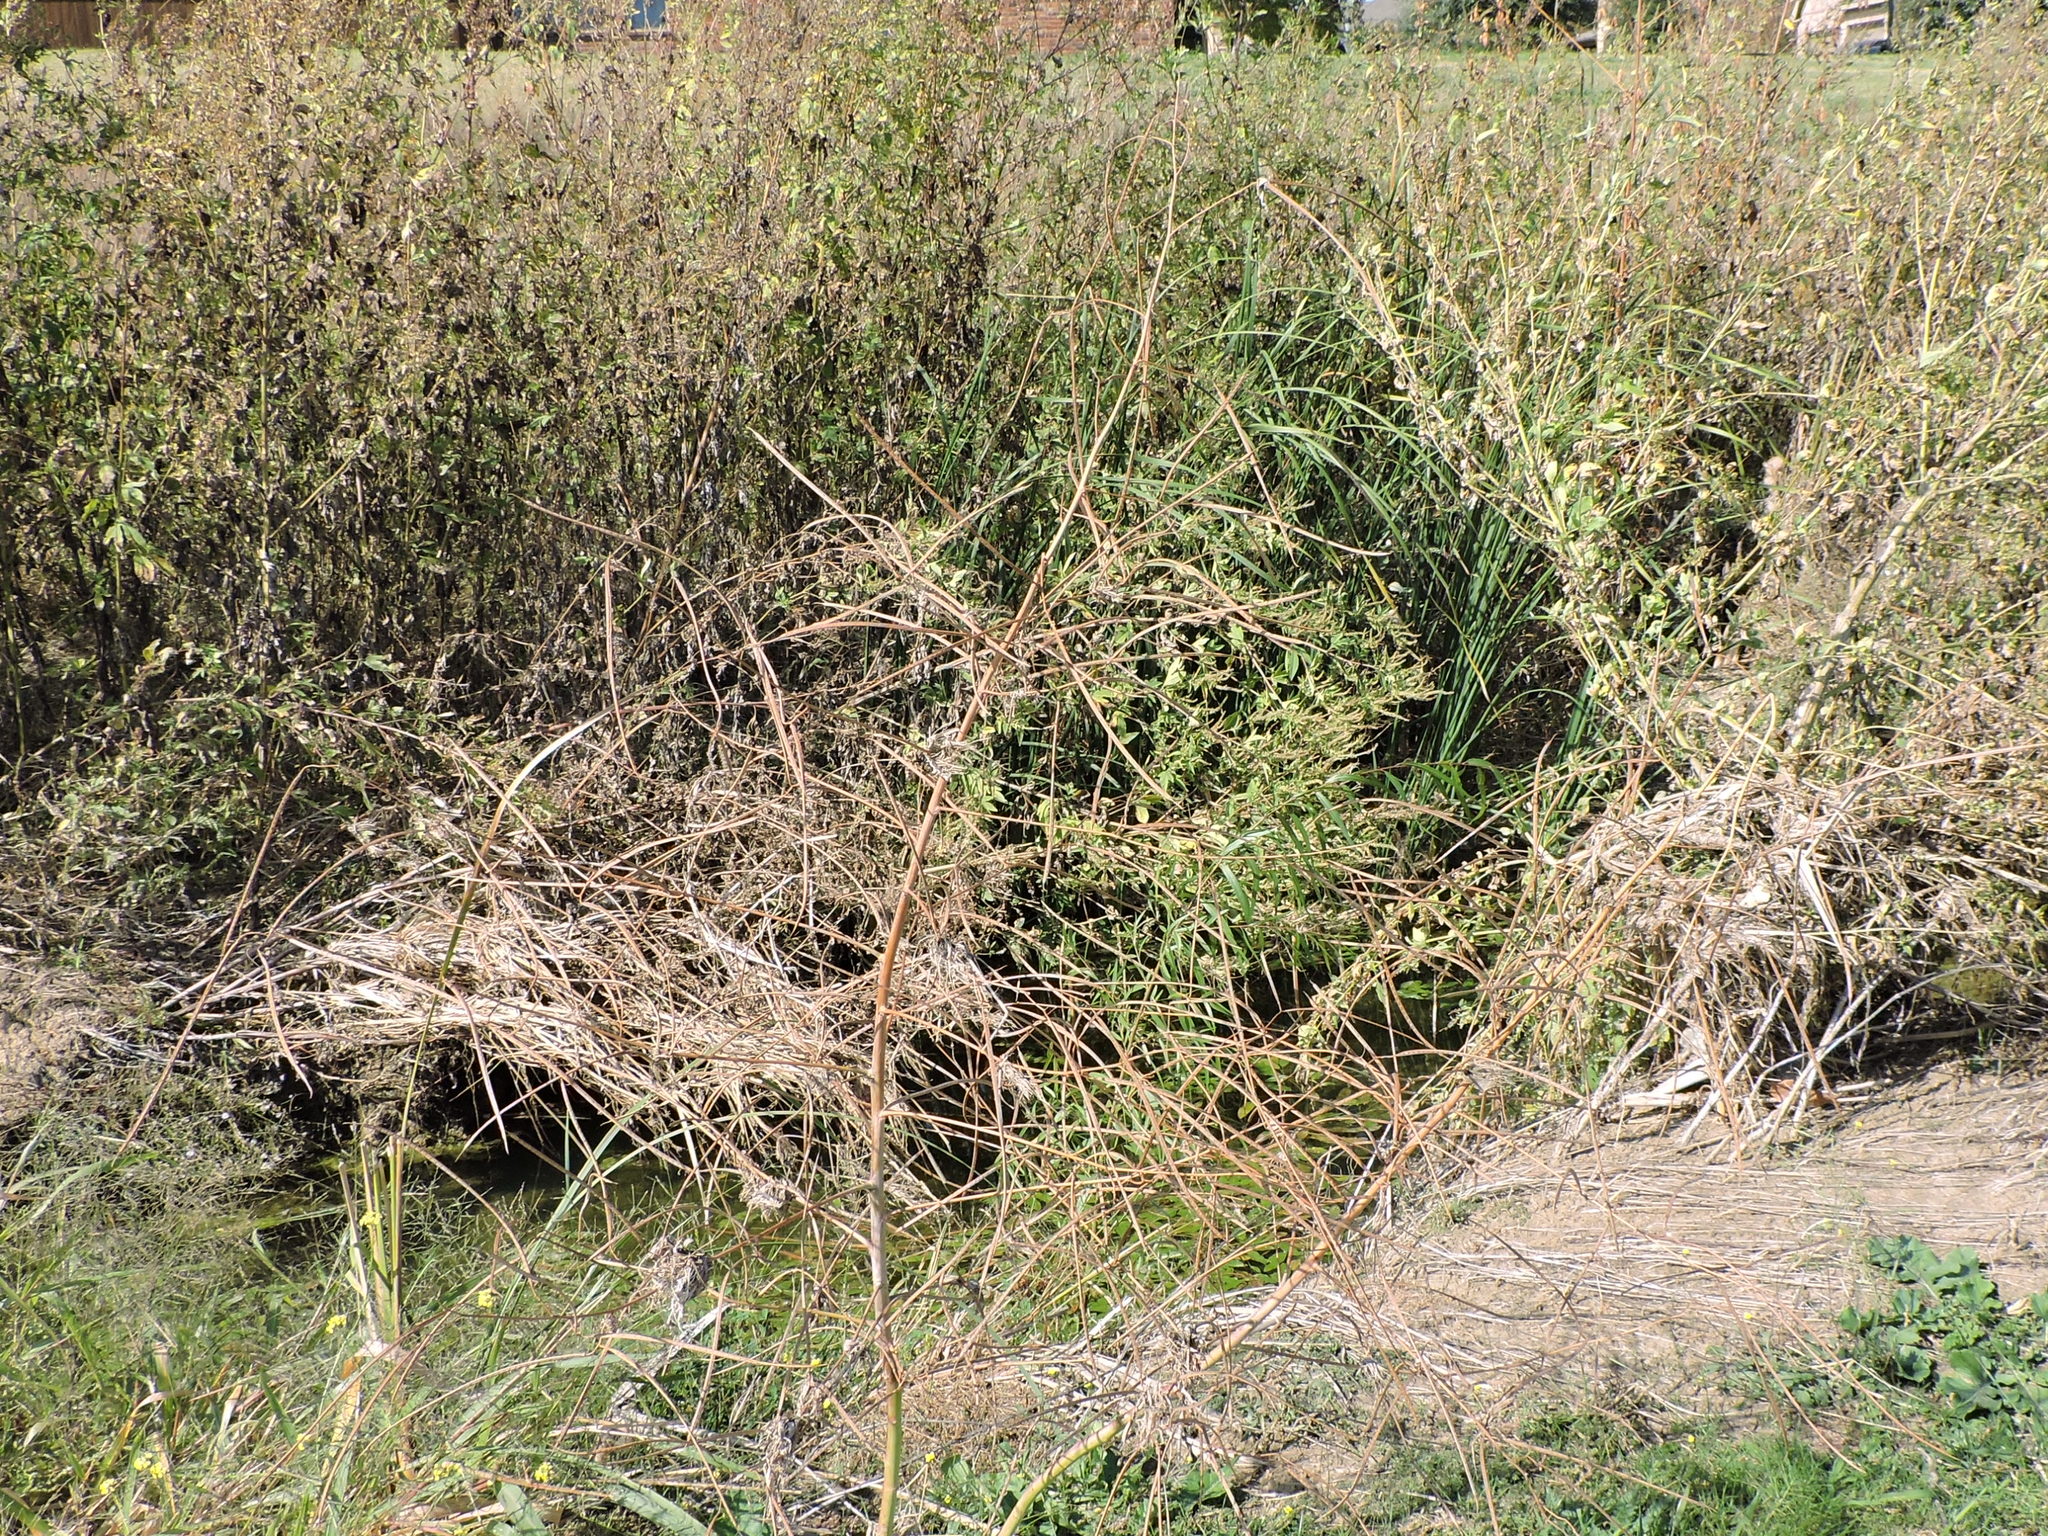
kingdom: Plantae
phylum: Tracheophyta
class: Magnoliopsida
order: Fabales
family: Fabaceae
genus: Sesbania
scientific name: Sesbania herbacea
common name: Bigpod sesbania
